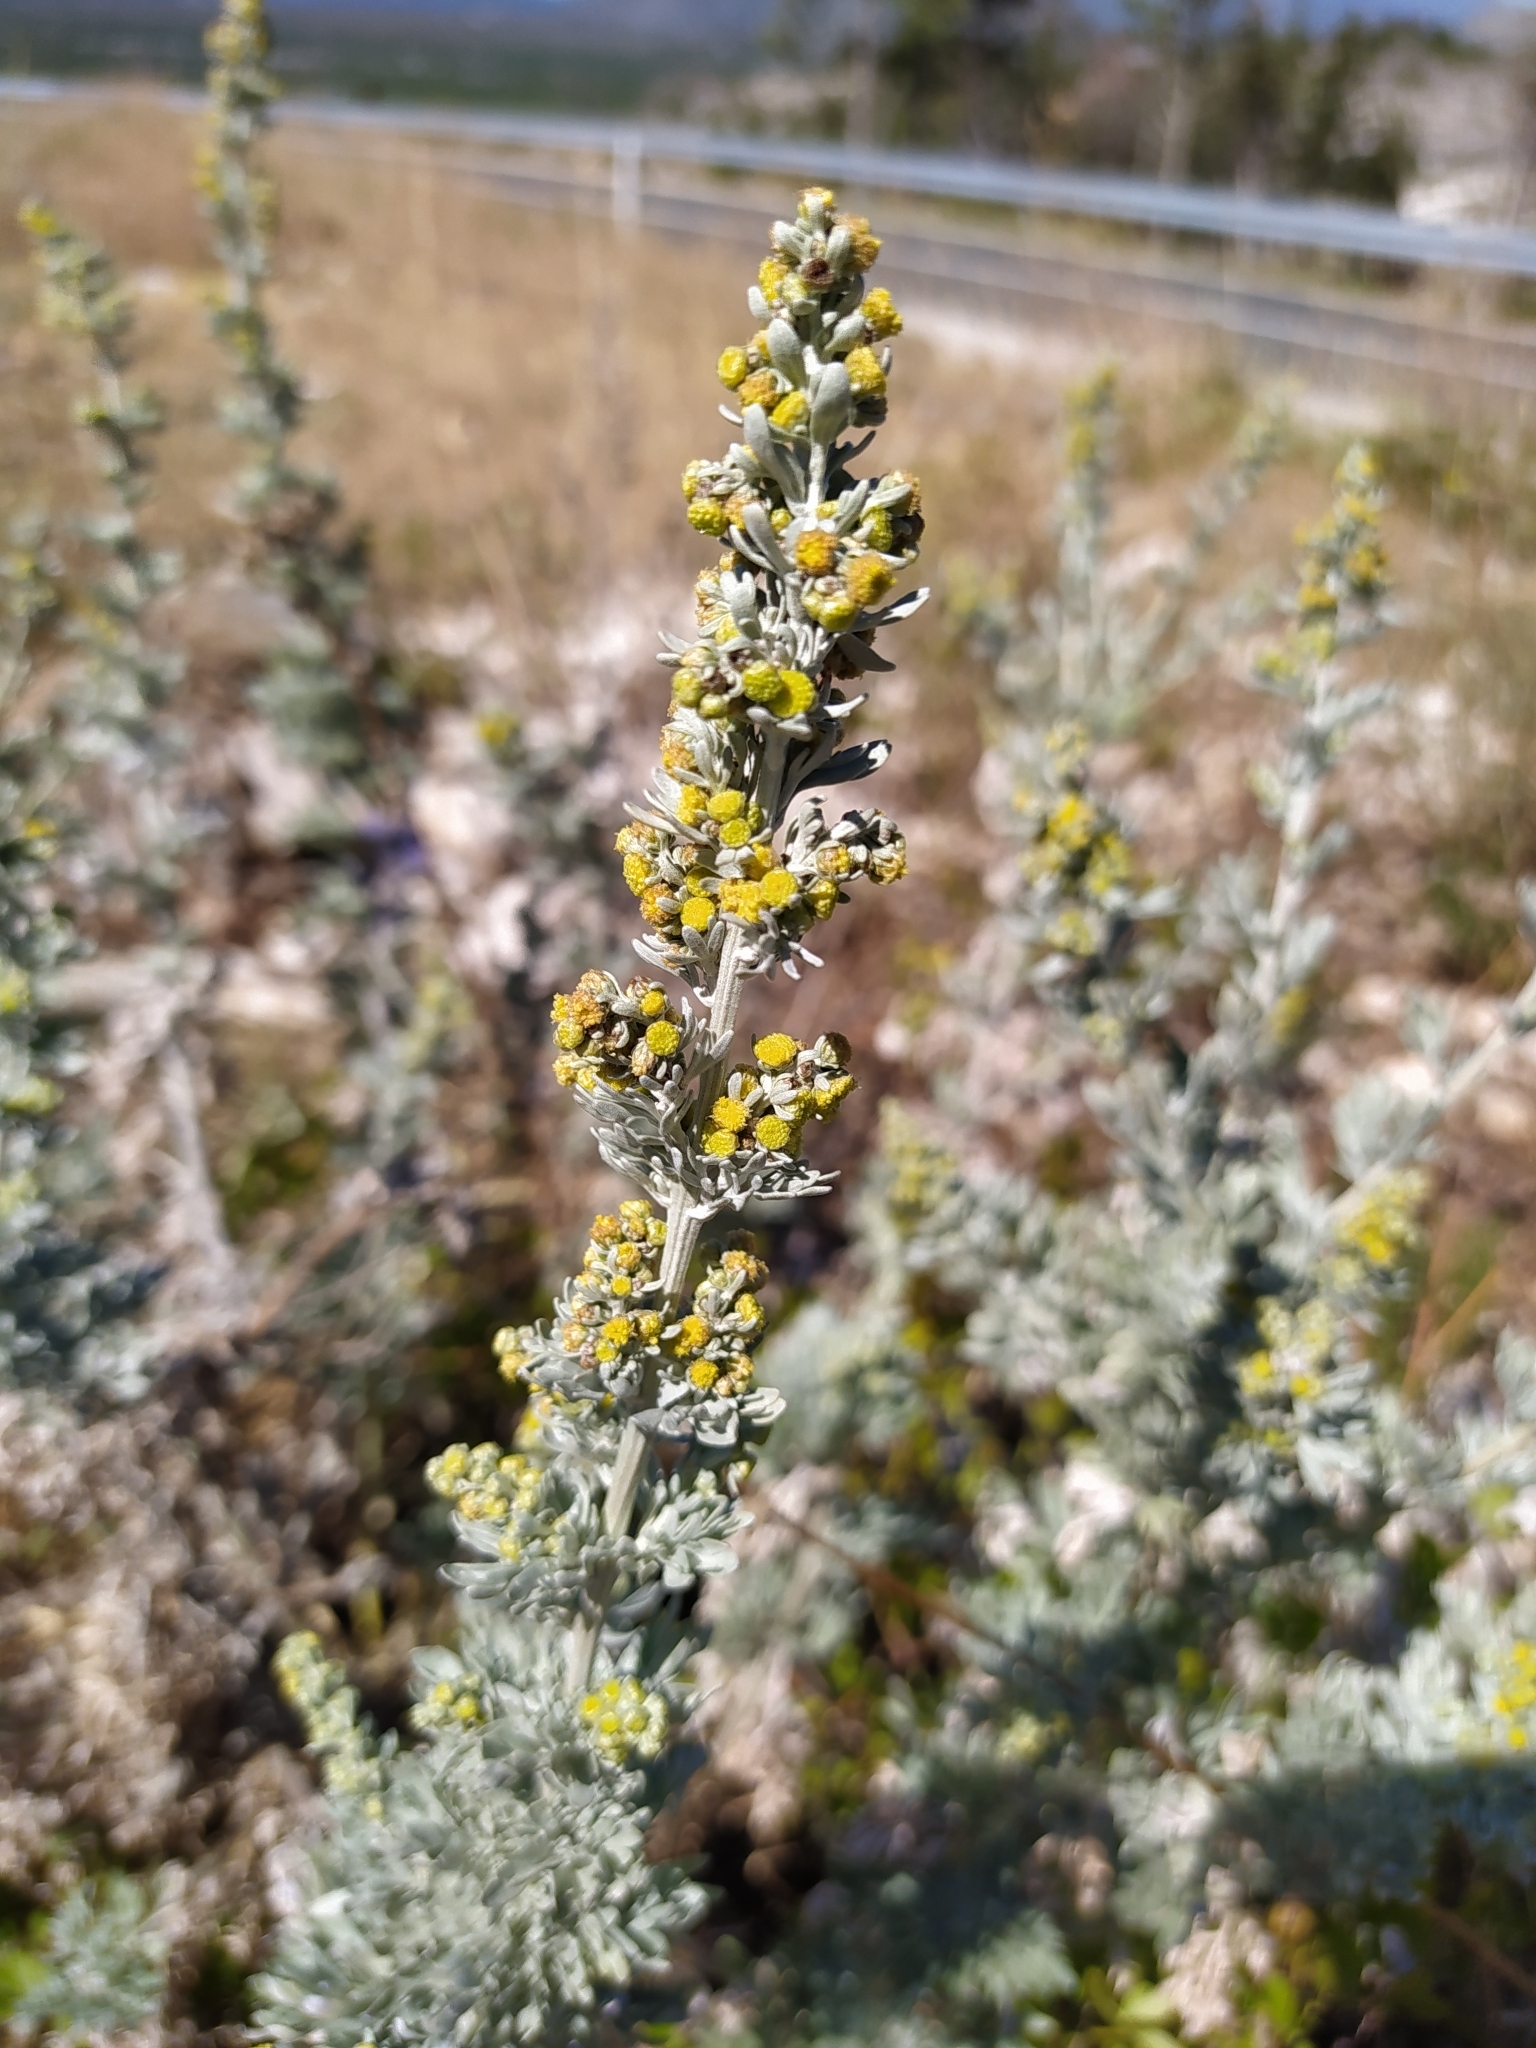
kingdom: Plantae
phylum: Tracheophyta
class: Magnoliopsida
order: Asterales
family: Asteraceae
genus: Artemisia
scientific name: Artemisia absinthium
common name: Wormwood
